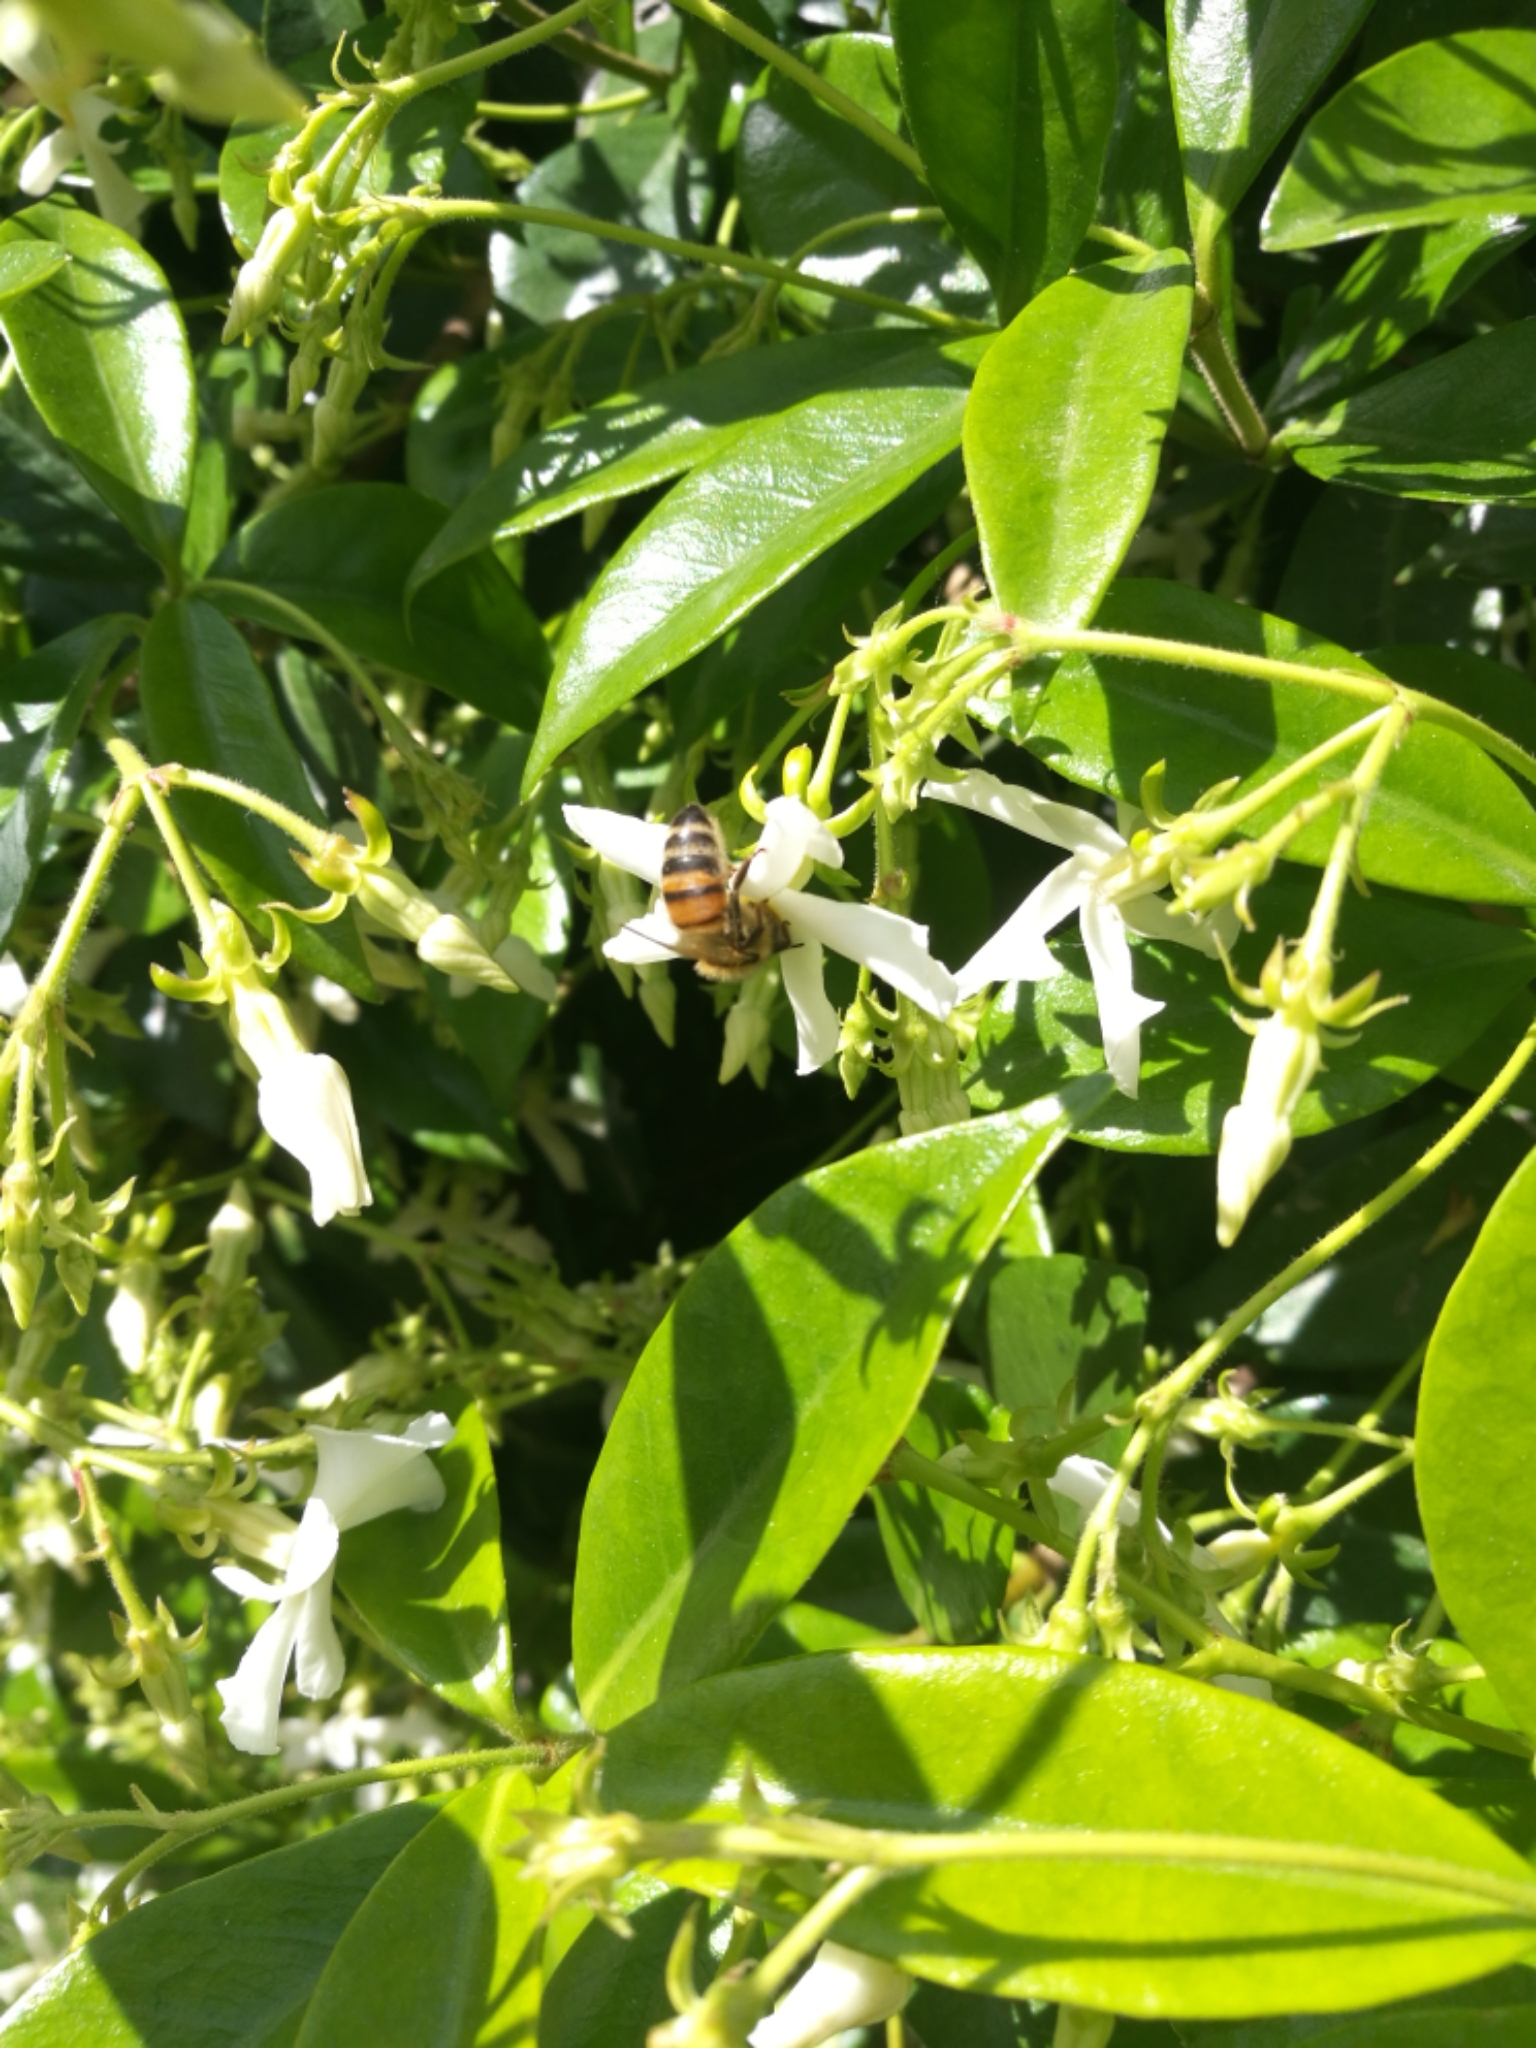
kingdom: Animalia
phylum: Arthropoda
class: Insecta
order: Hymenoptera
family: Apidae
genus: Apis
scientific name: Apis mellifera
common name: Honey bee
